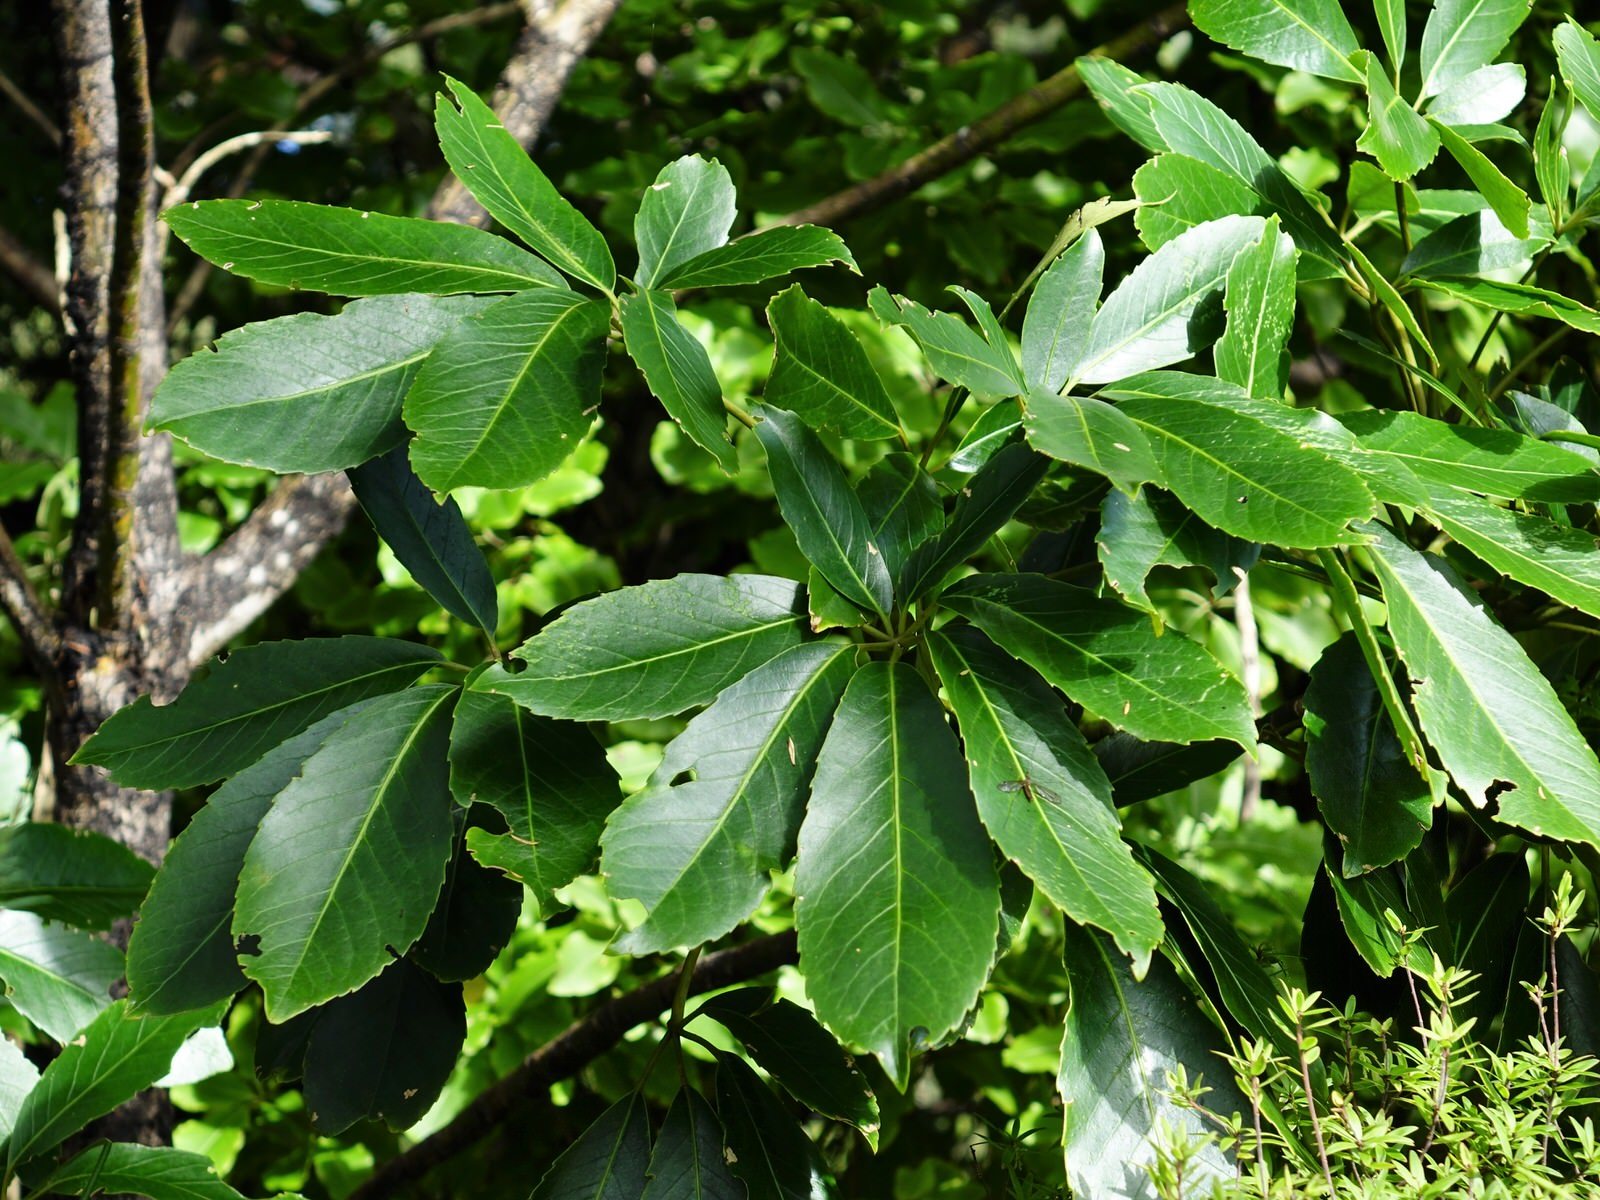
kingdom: Plantae
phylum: Tracheophyta
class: Magnoliopsida
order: Apiales
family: Araliaceae
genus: Neopanax
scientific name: Neopanax arboreus
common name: Five-fingers
